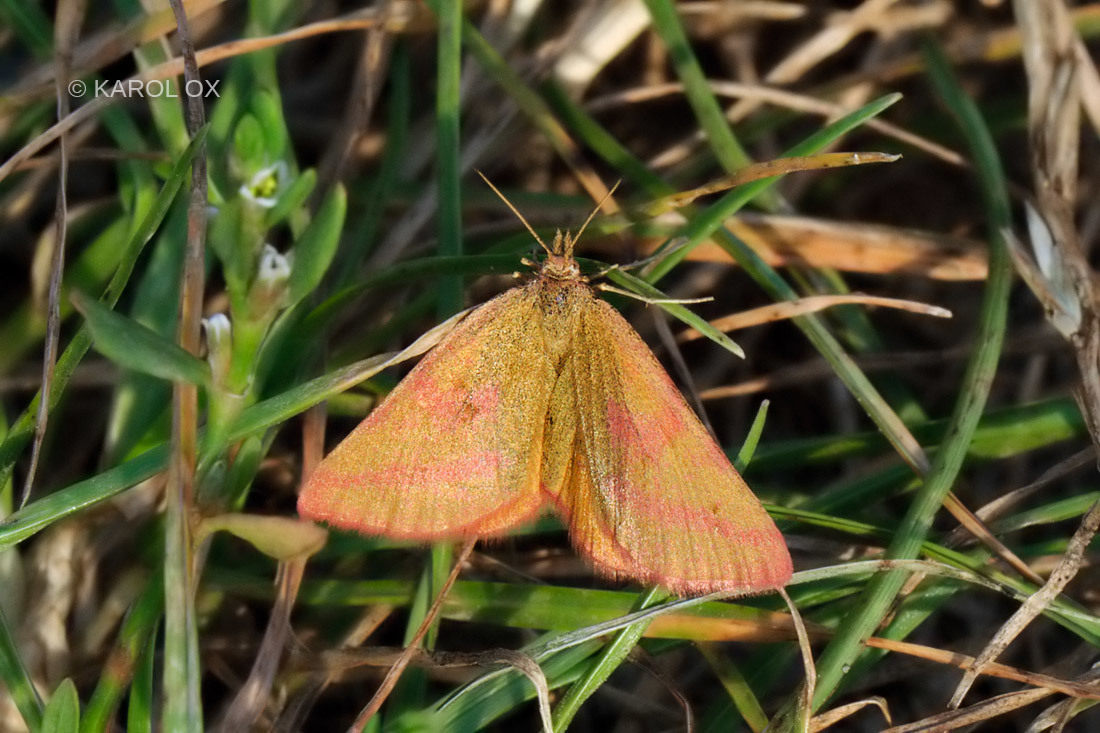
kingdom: Animalia
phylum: Arthropoda
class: Insecta
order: Lepidoptera
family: Geometridae
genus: Lythria
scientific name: Lythria purpuraria
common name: Purple-barred yellow
